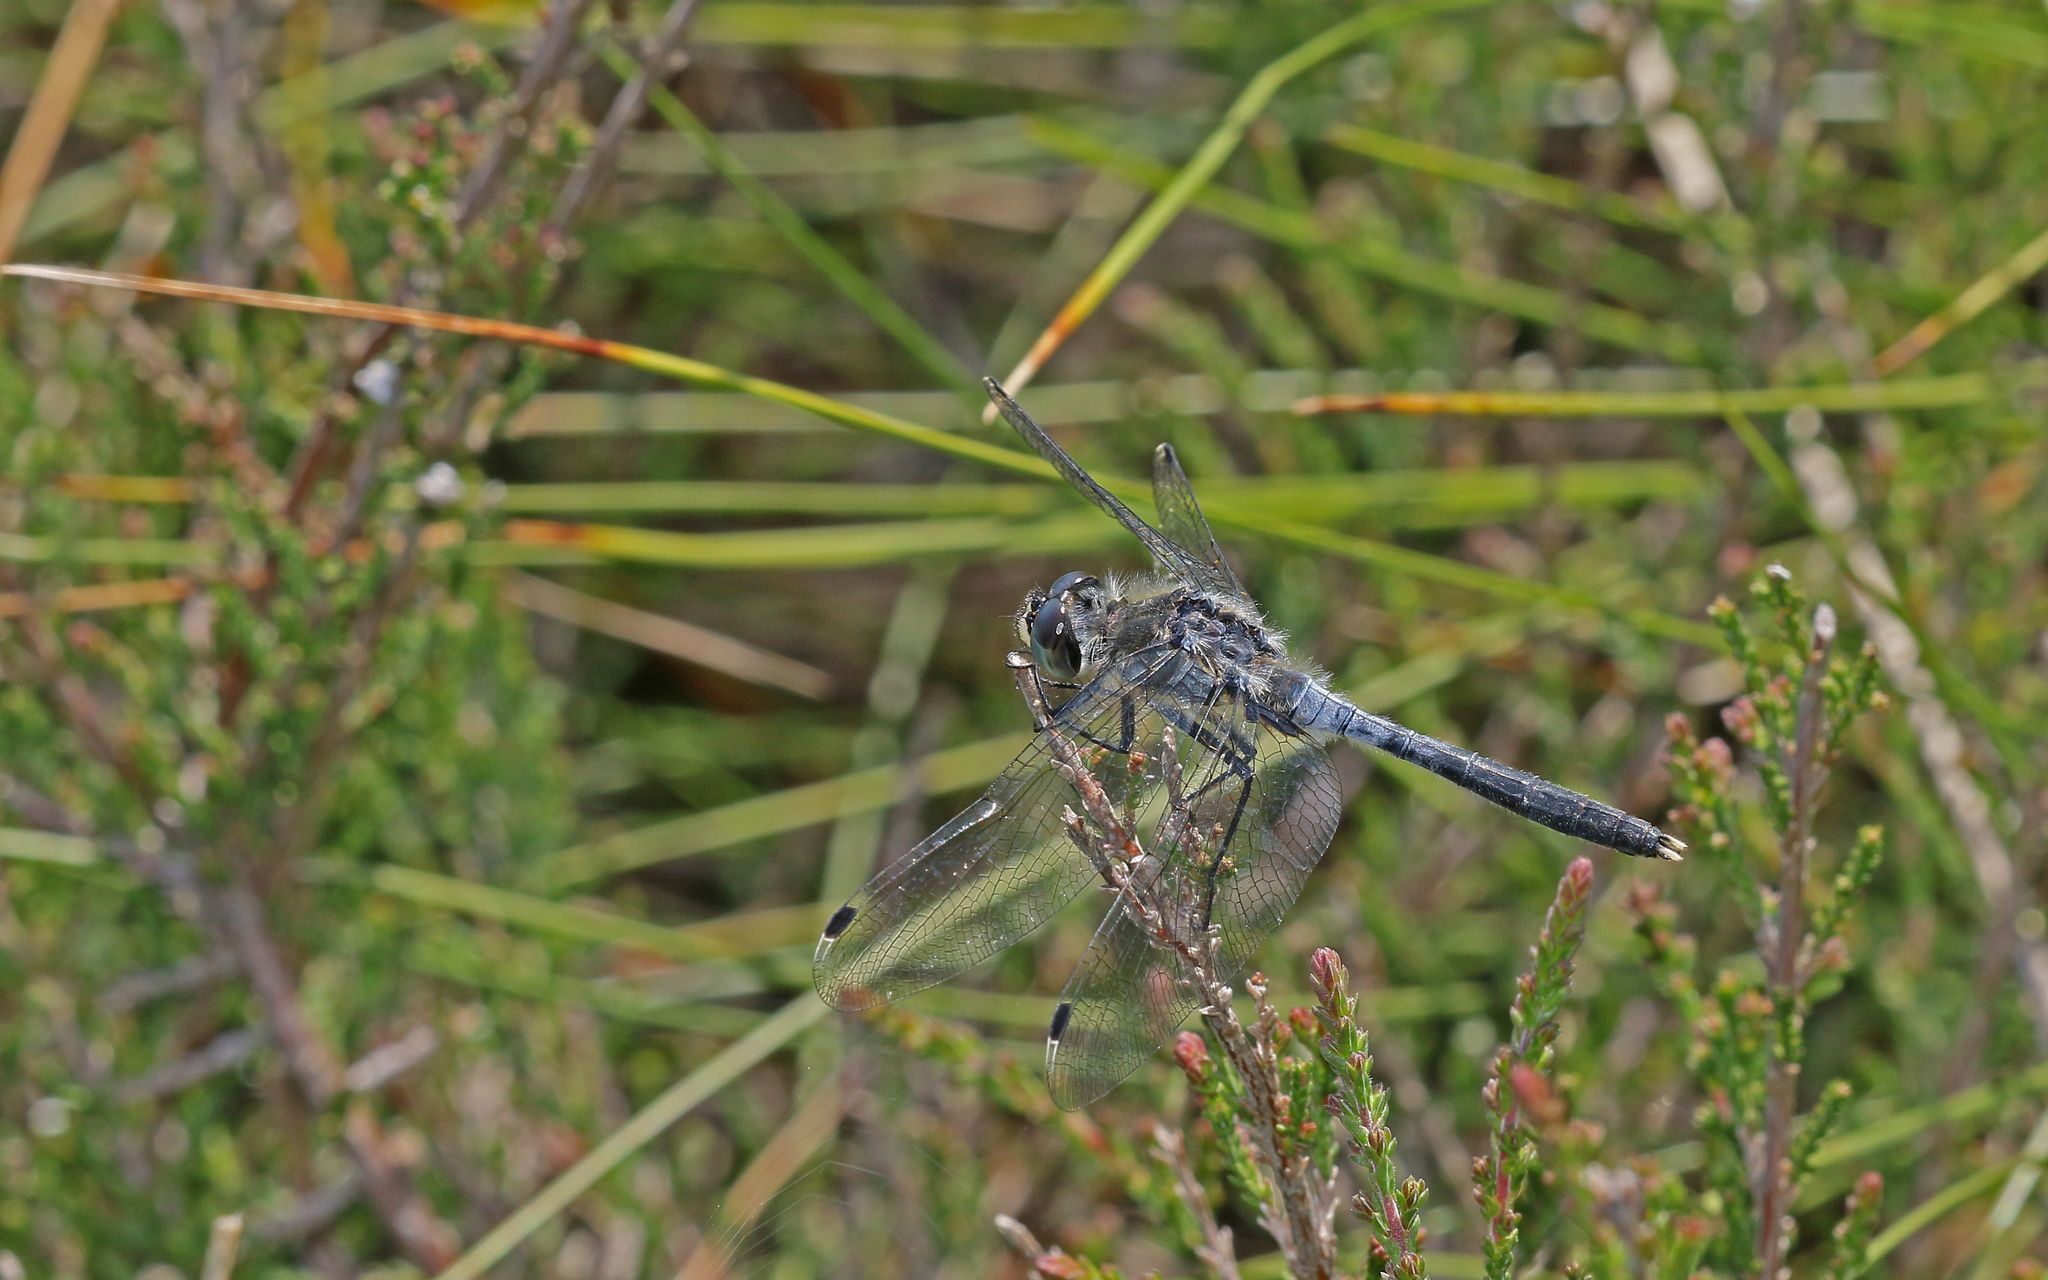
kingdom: Animalia
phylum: Arthropoda
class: Insecta
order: Odonata
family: Libellulidae
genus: Leucorrhinia
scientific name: Leucorrhinia albifrons
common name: Dark whiteface
